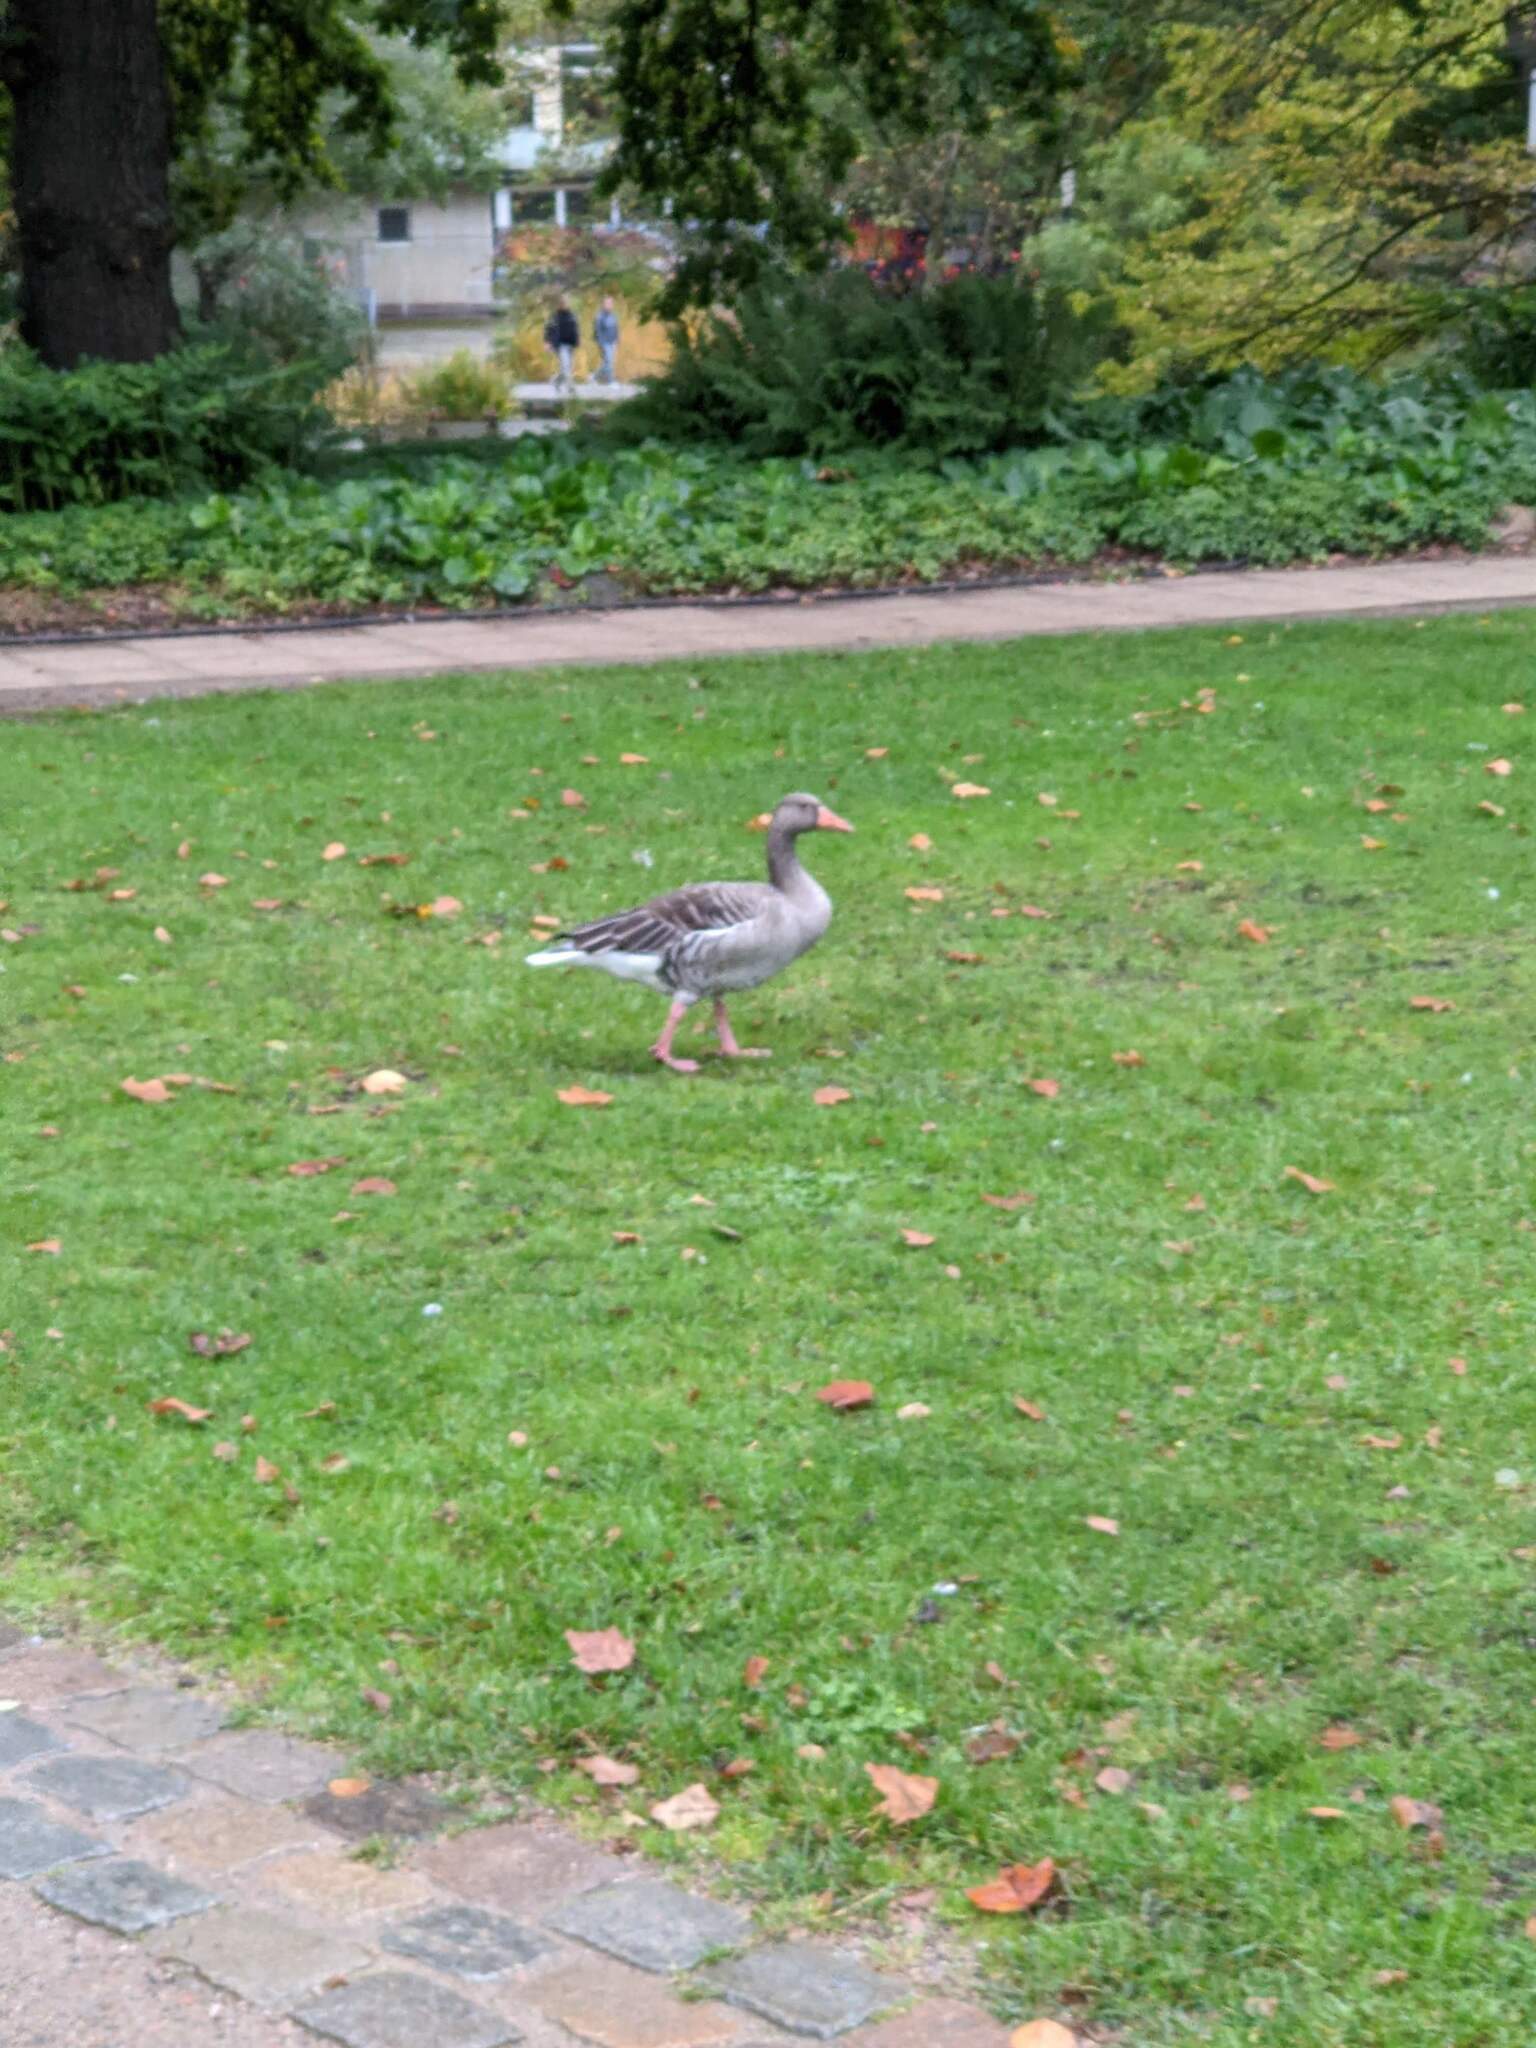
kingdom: Animalia
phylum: Chordata
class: Aves
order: Anseriformes
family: Anatidae
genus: Anser
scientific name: Anser anser
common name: Greylag goose
